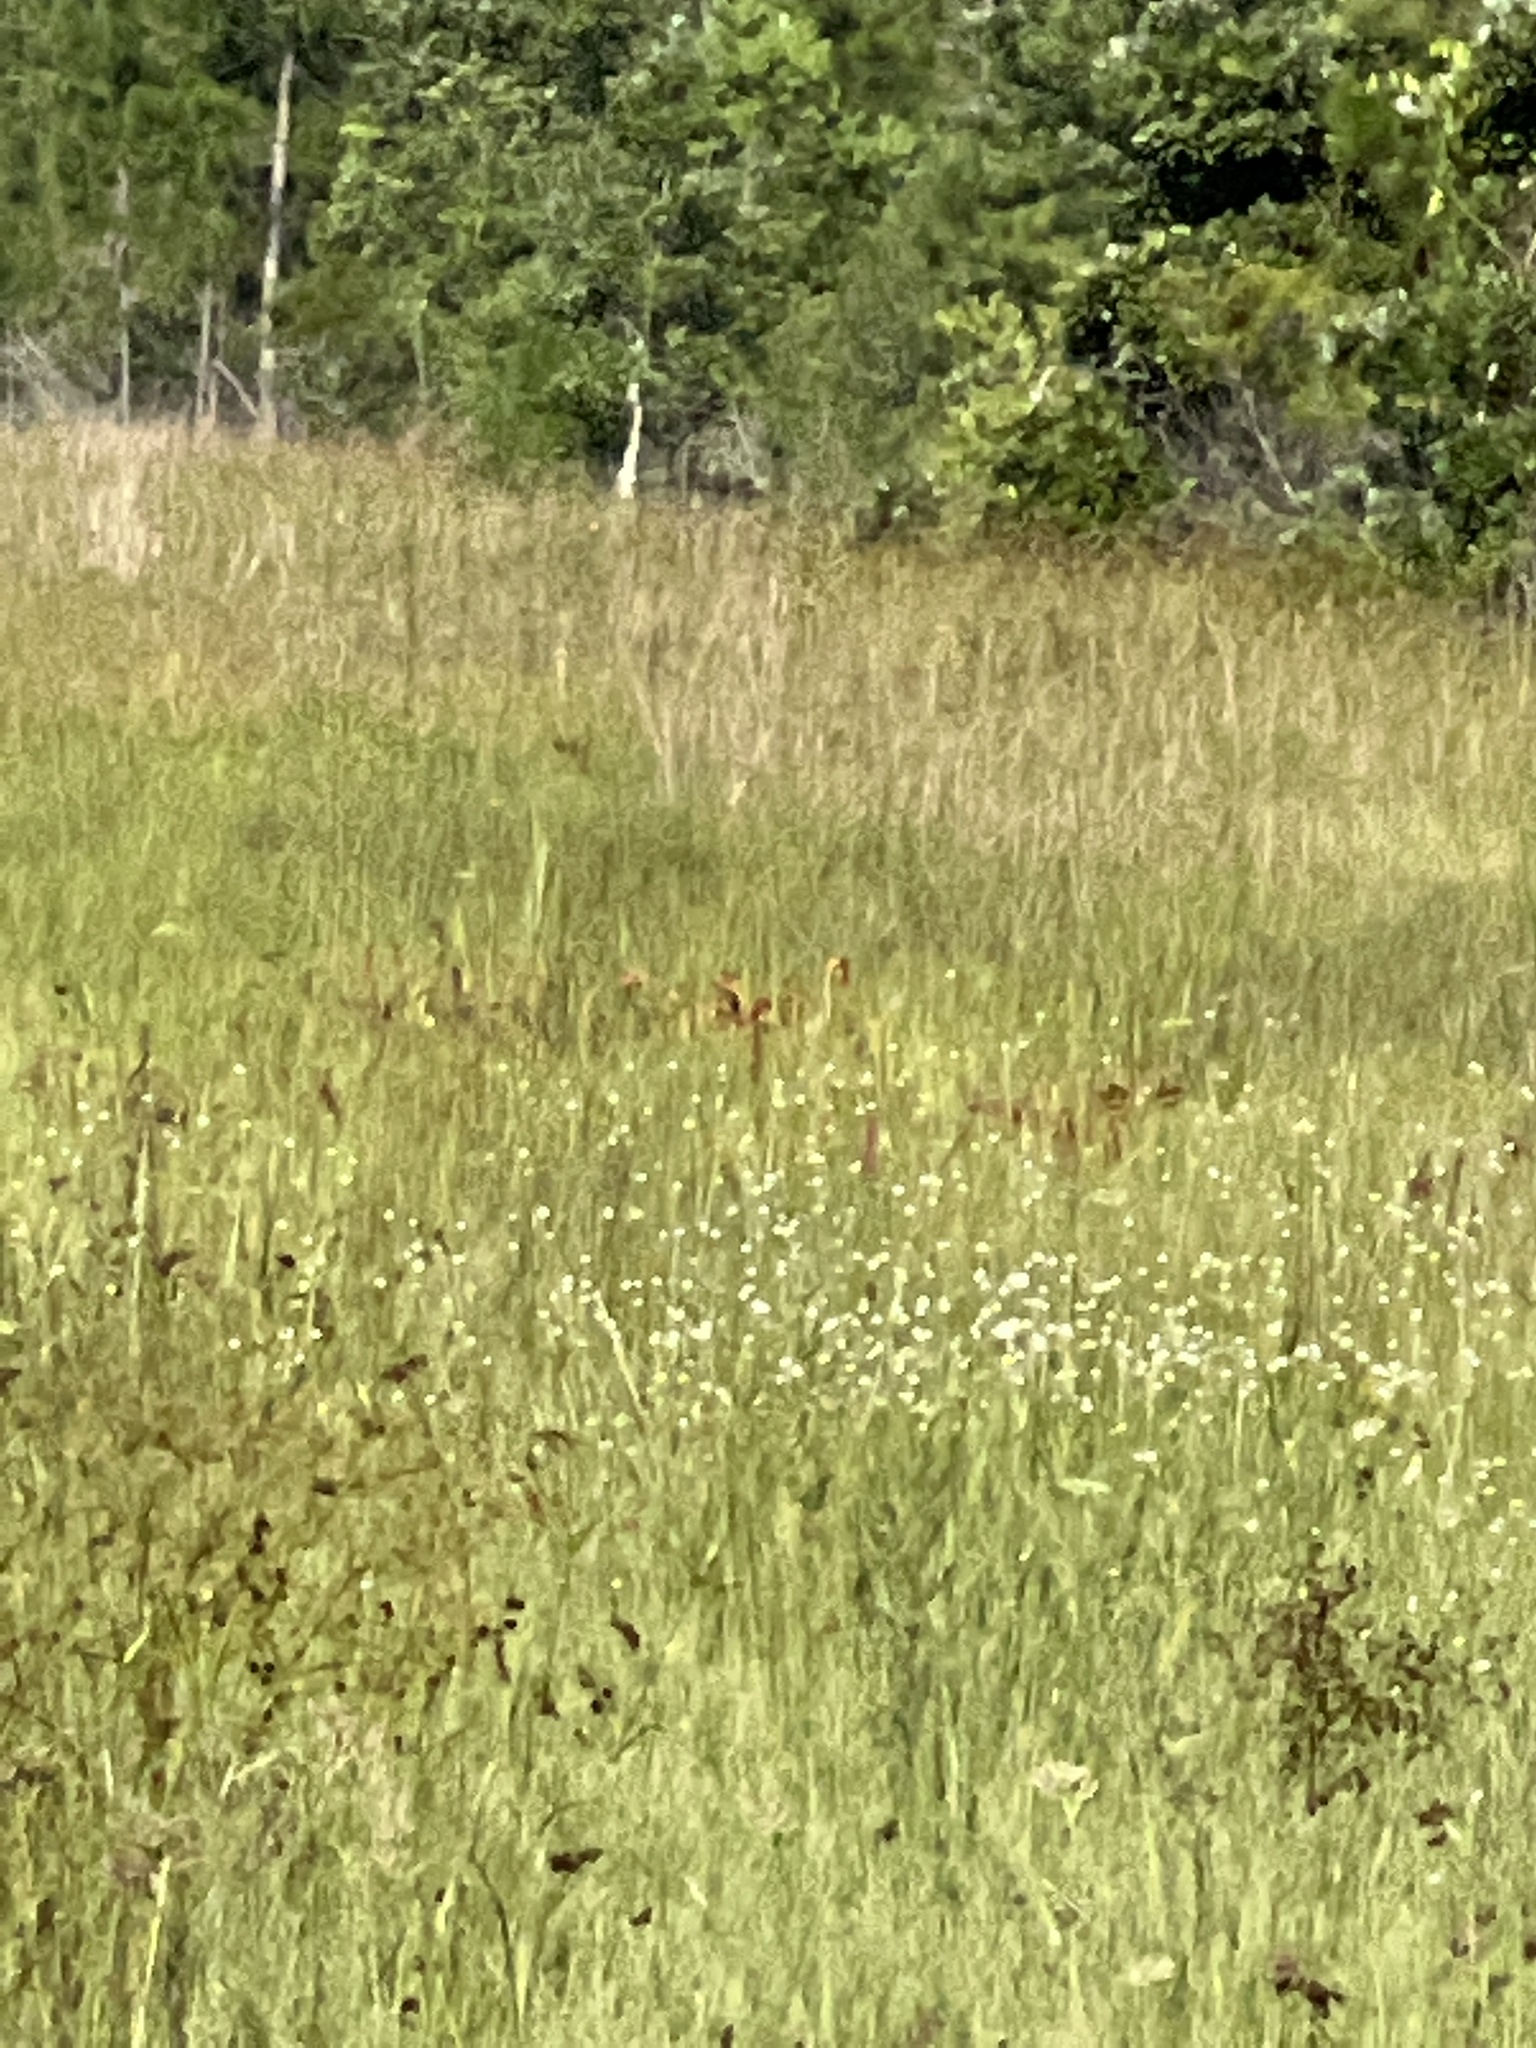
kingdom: Plantae
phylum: Tracheophyta
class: Liliopsida
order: Poales
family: Eriocaulaceae
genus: Eriocaulon
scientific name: Eriocaulon decangulare
